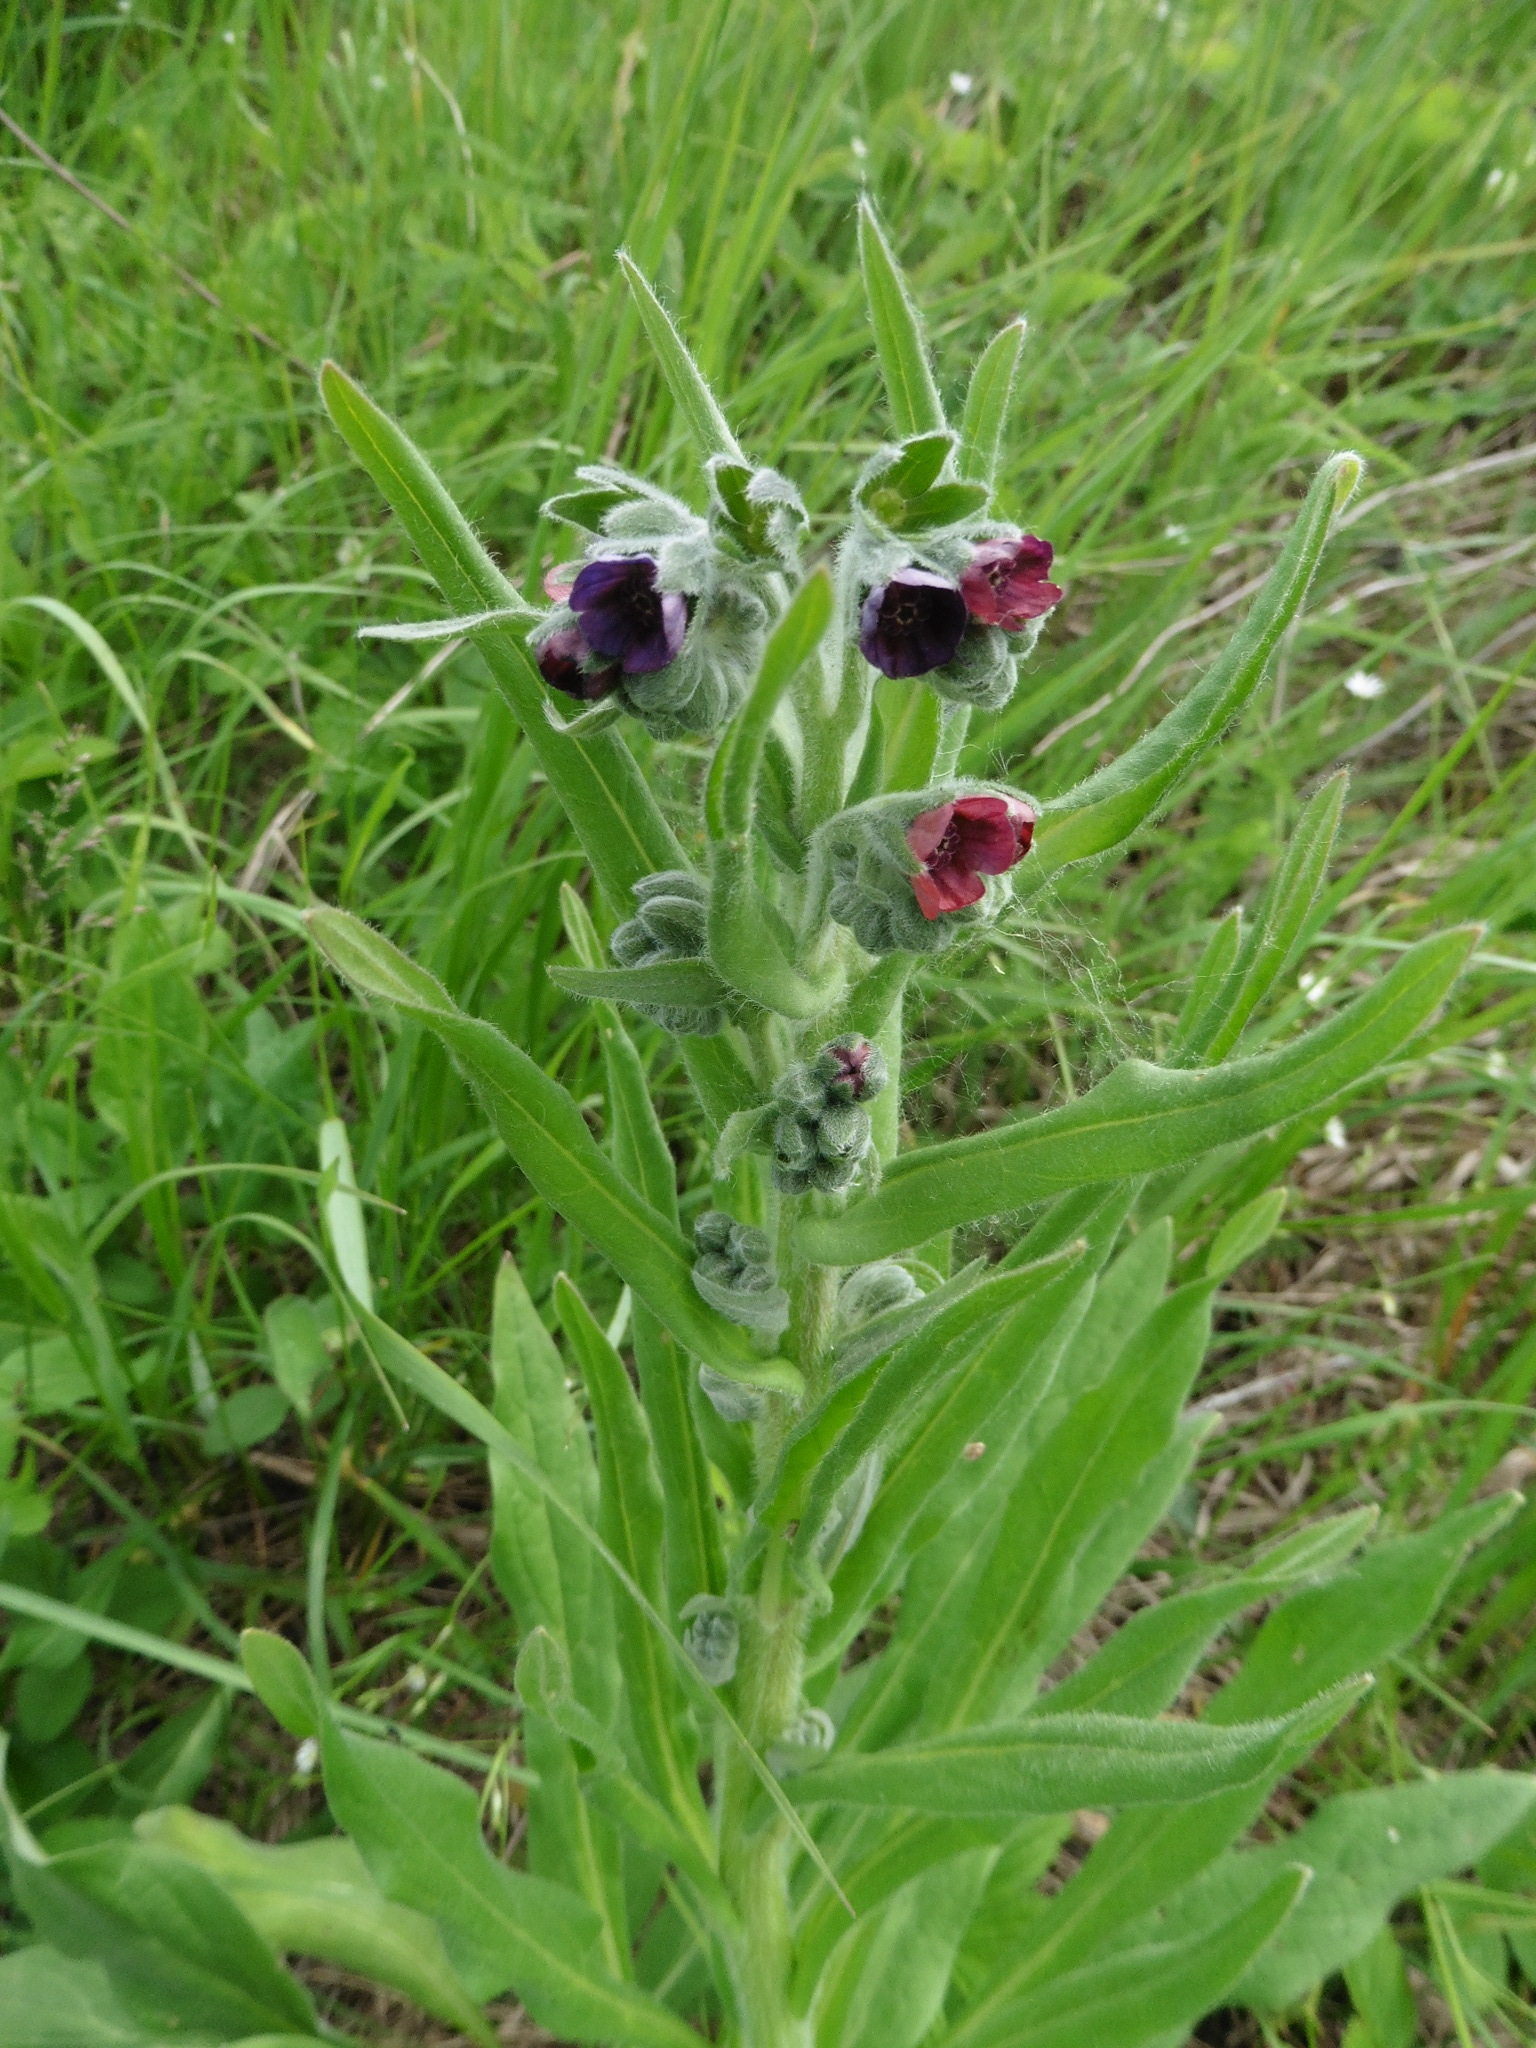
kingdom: Plantae
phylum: Tracheophyta
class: Magnoliopsida
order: Boraginales
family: Boraginaceae
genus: Cynoglossum
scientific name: Cynoglossum officinale
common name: Hound's-tongue
